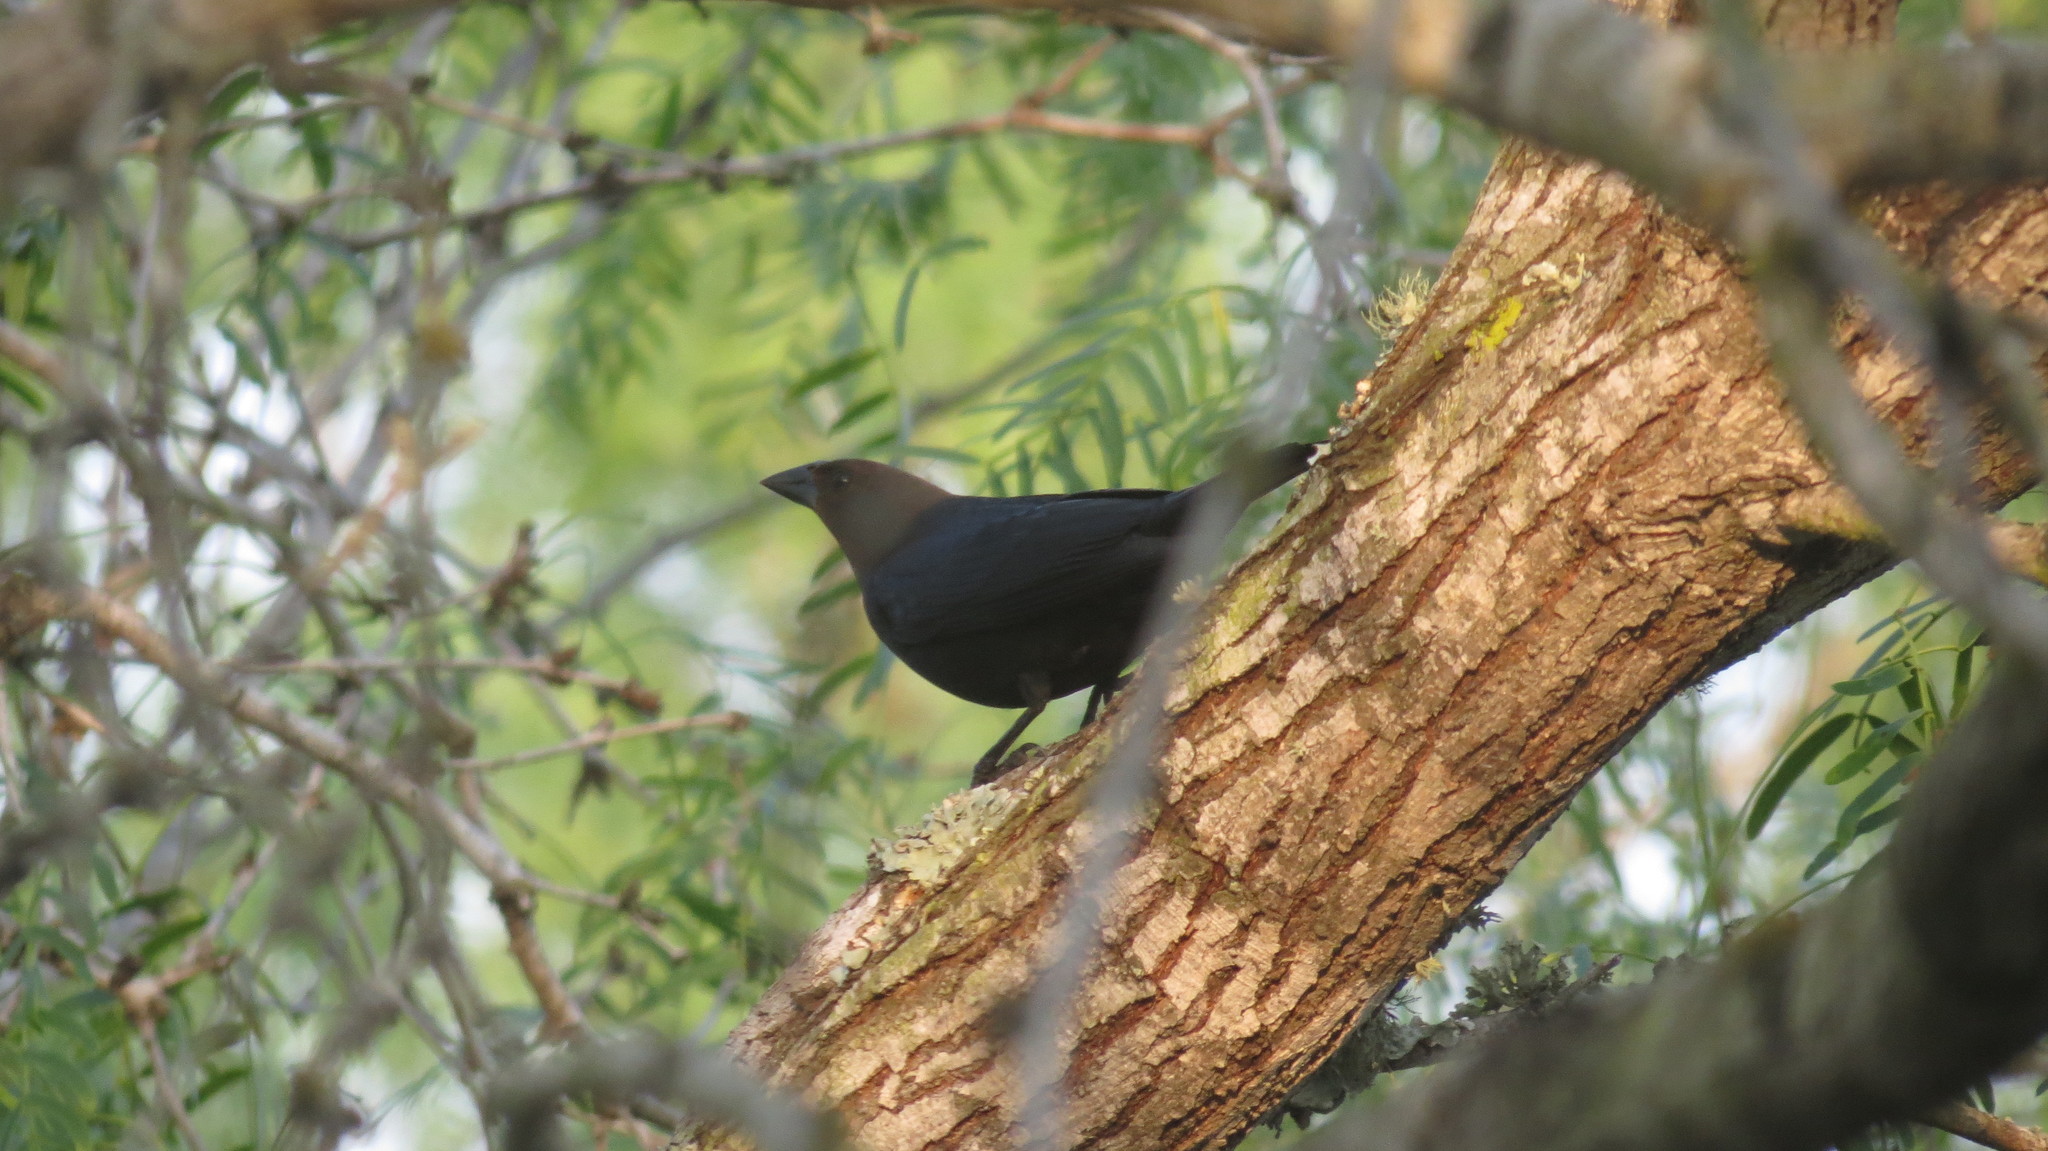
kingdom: Animalia
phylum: Chordata
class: Aves
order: Passeriformes
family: Icteridae
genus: Molothrus
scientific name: Molothrus ater
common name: Brown-headed cowbird
